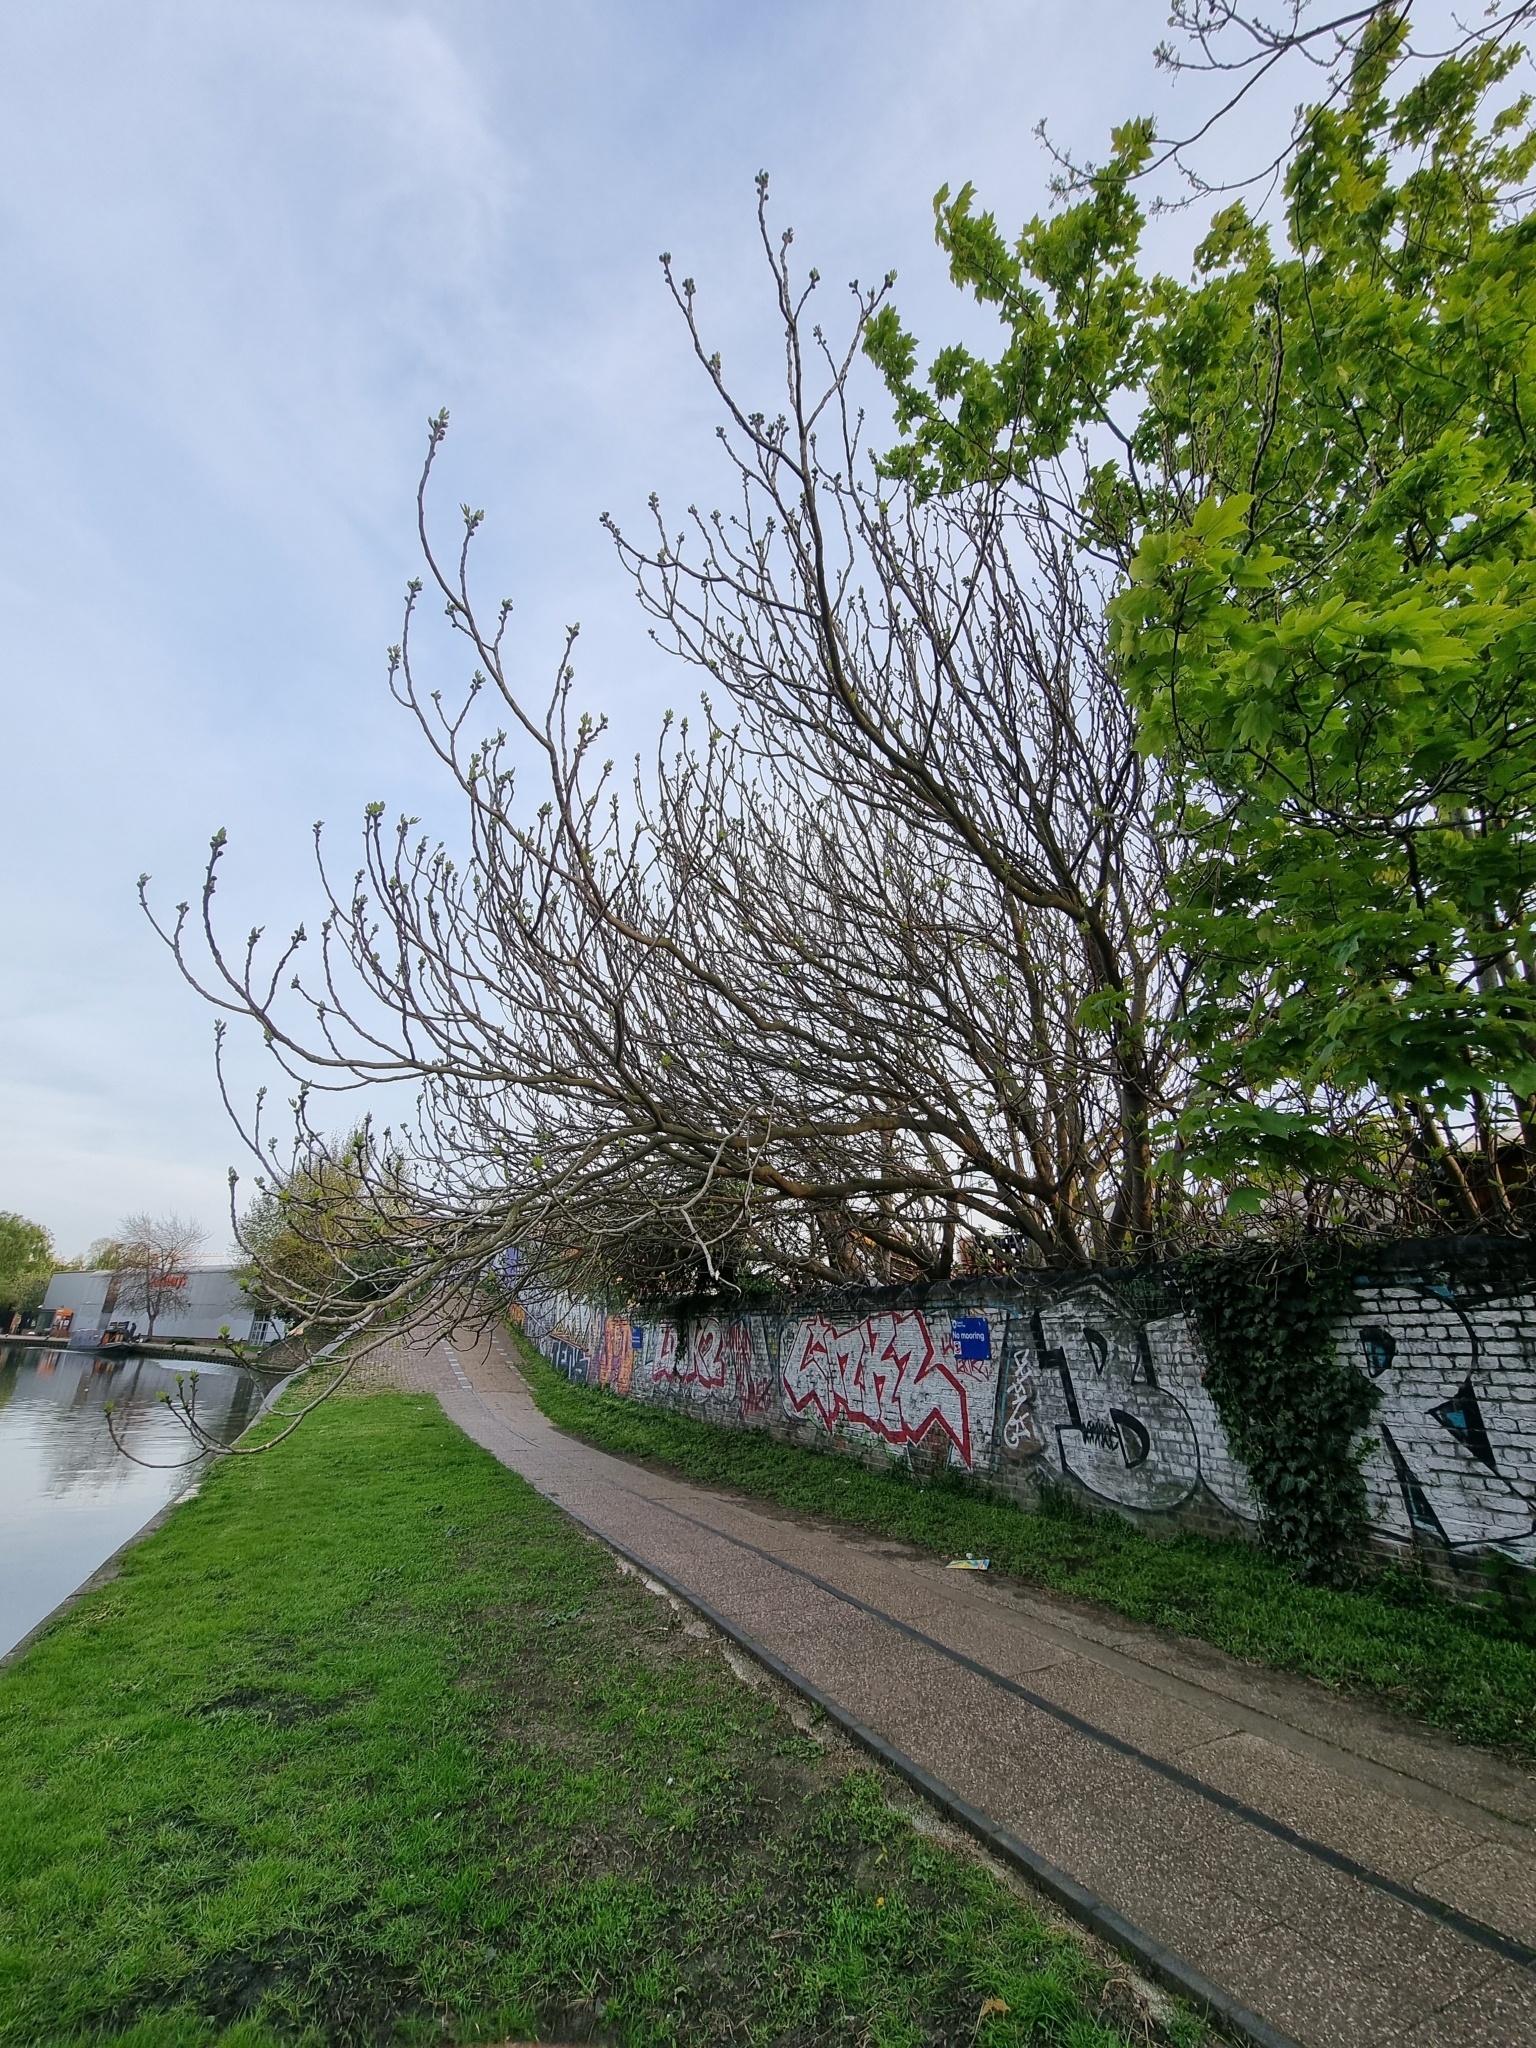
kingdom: Plantae
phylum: Tracheophyta
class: Magnoliopsida
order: Rosales
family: Moraceae
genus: Ficus
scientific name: Ficus carica
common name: Fig
